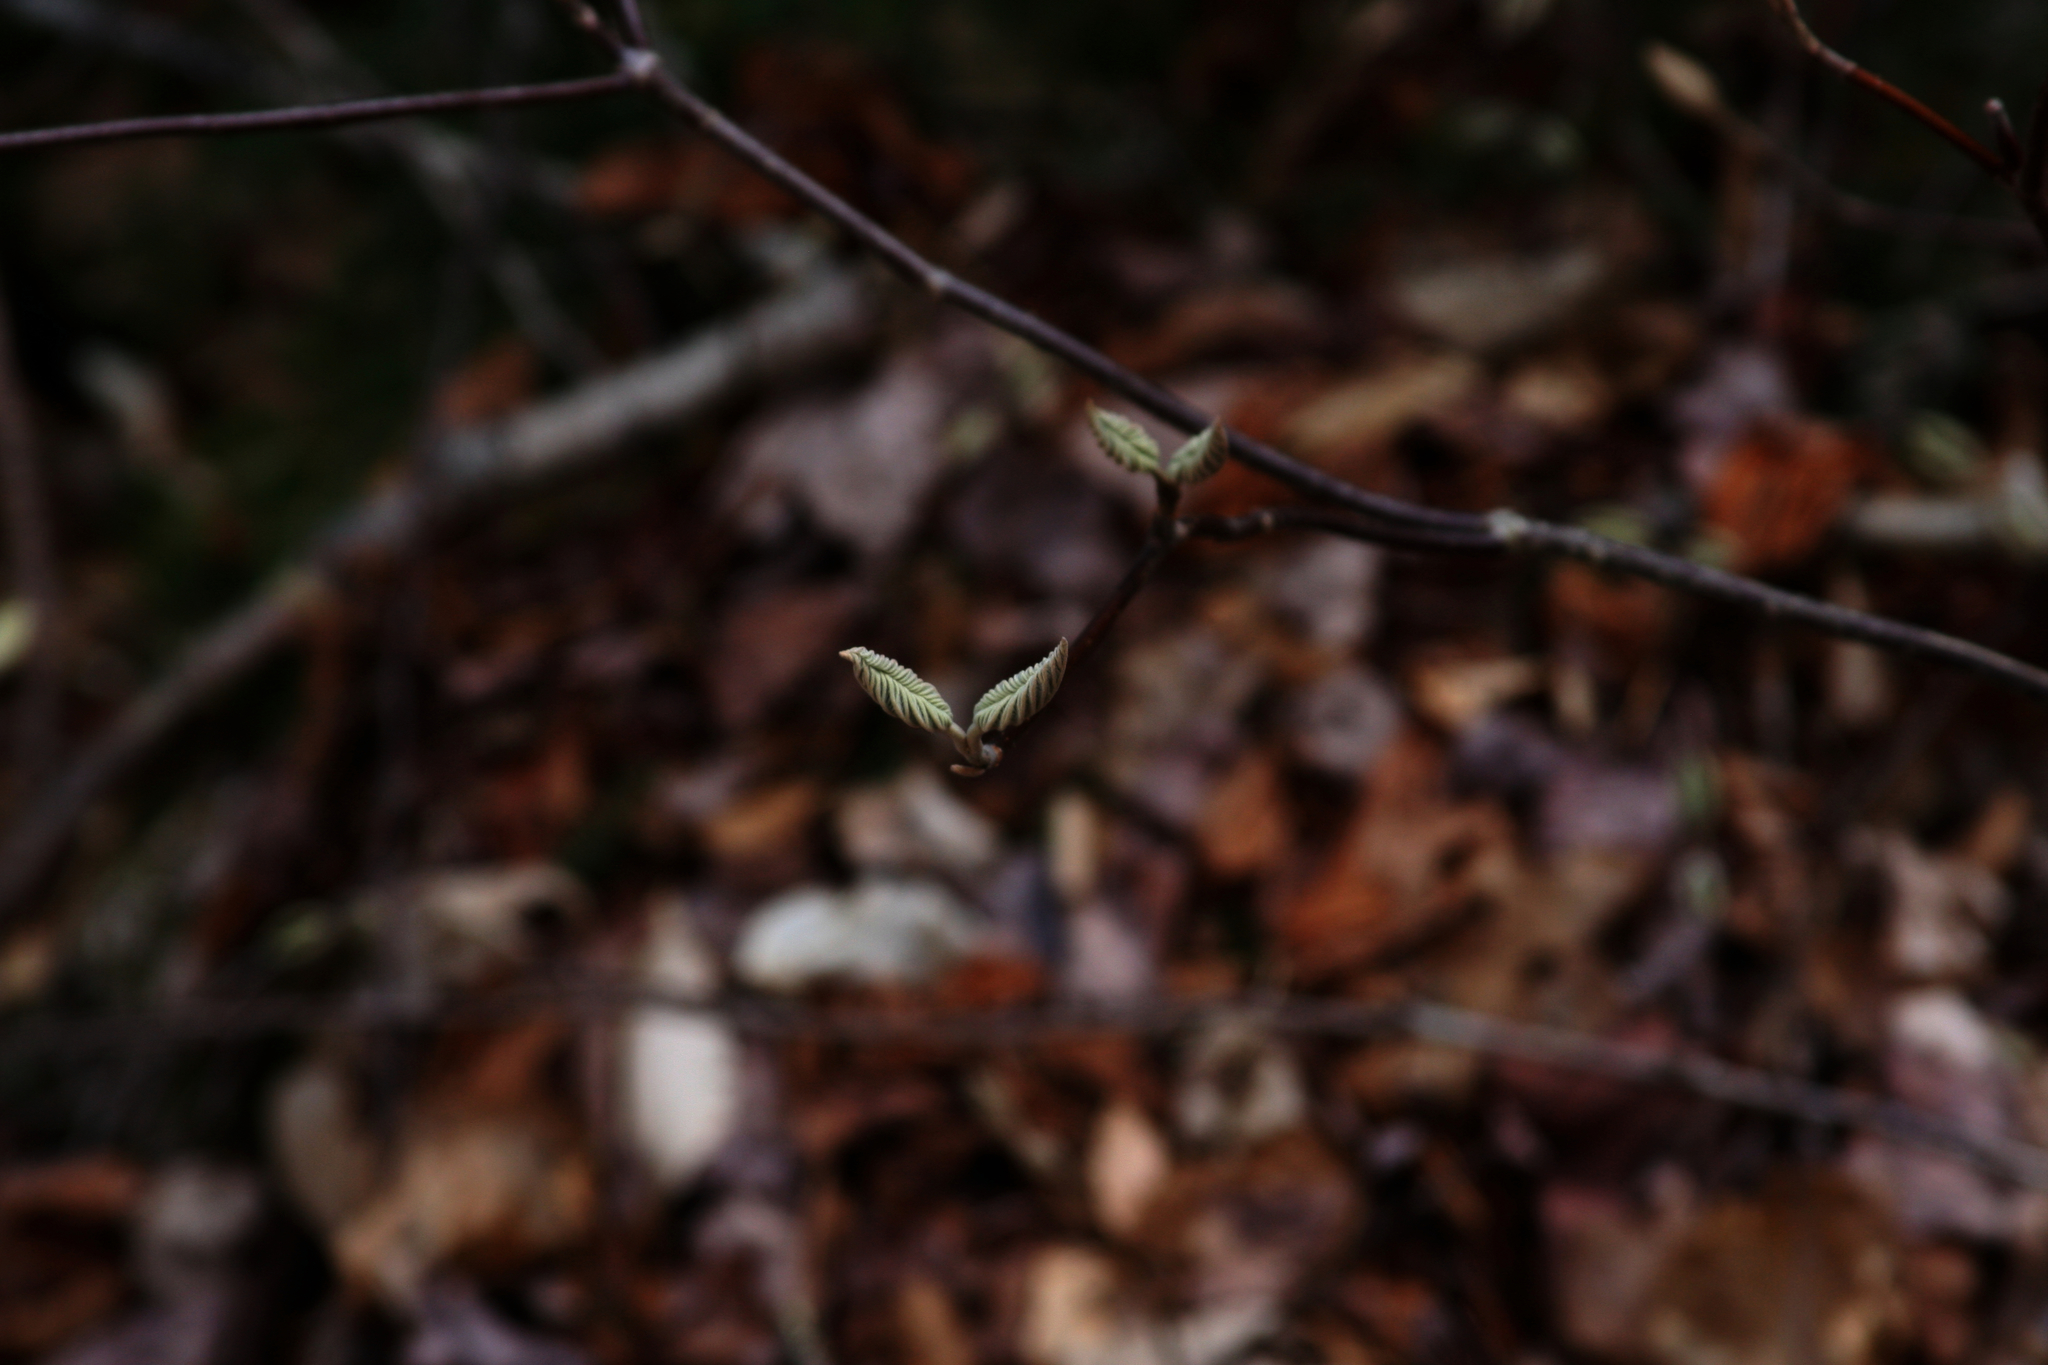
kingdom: Plantae
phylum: Tracheophyta
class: Magnoliopsida
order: Dipsacales
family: Viburnaceae
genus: Viburnum
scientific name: Viburnum lantanoides
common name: Hobblebush
